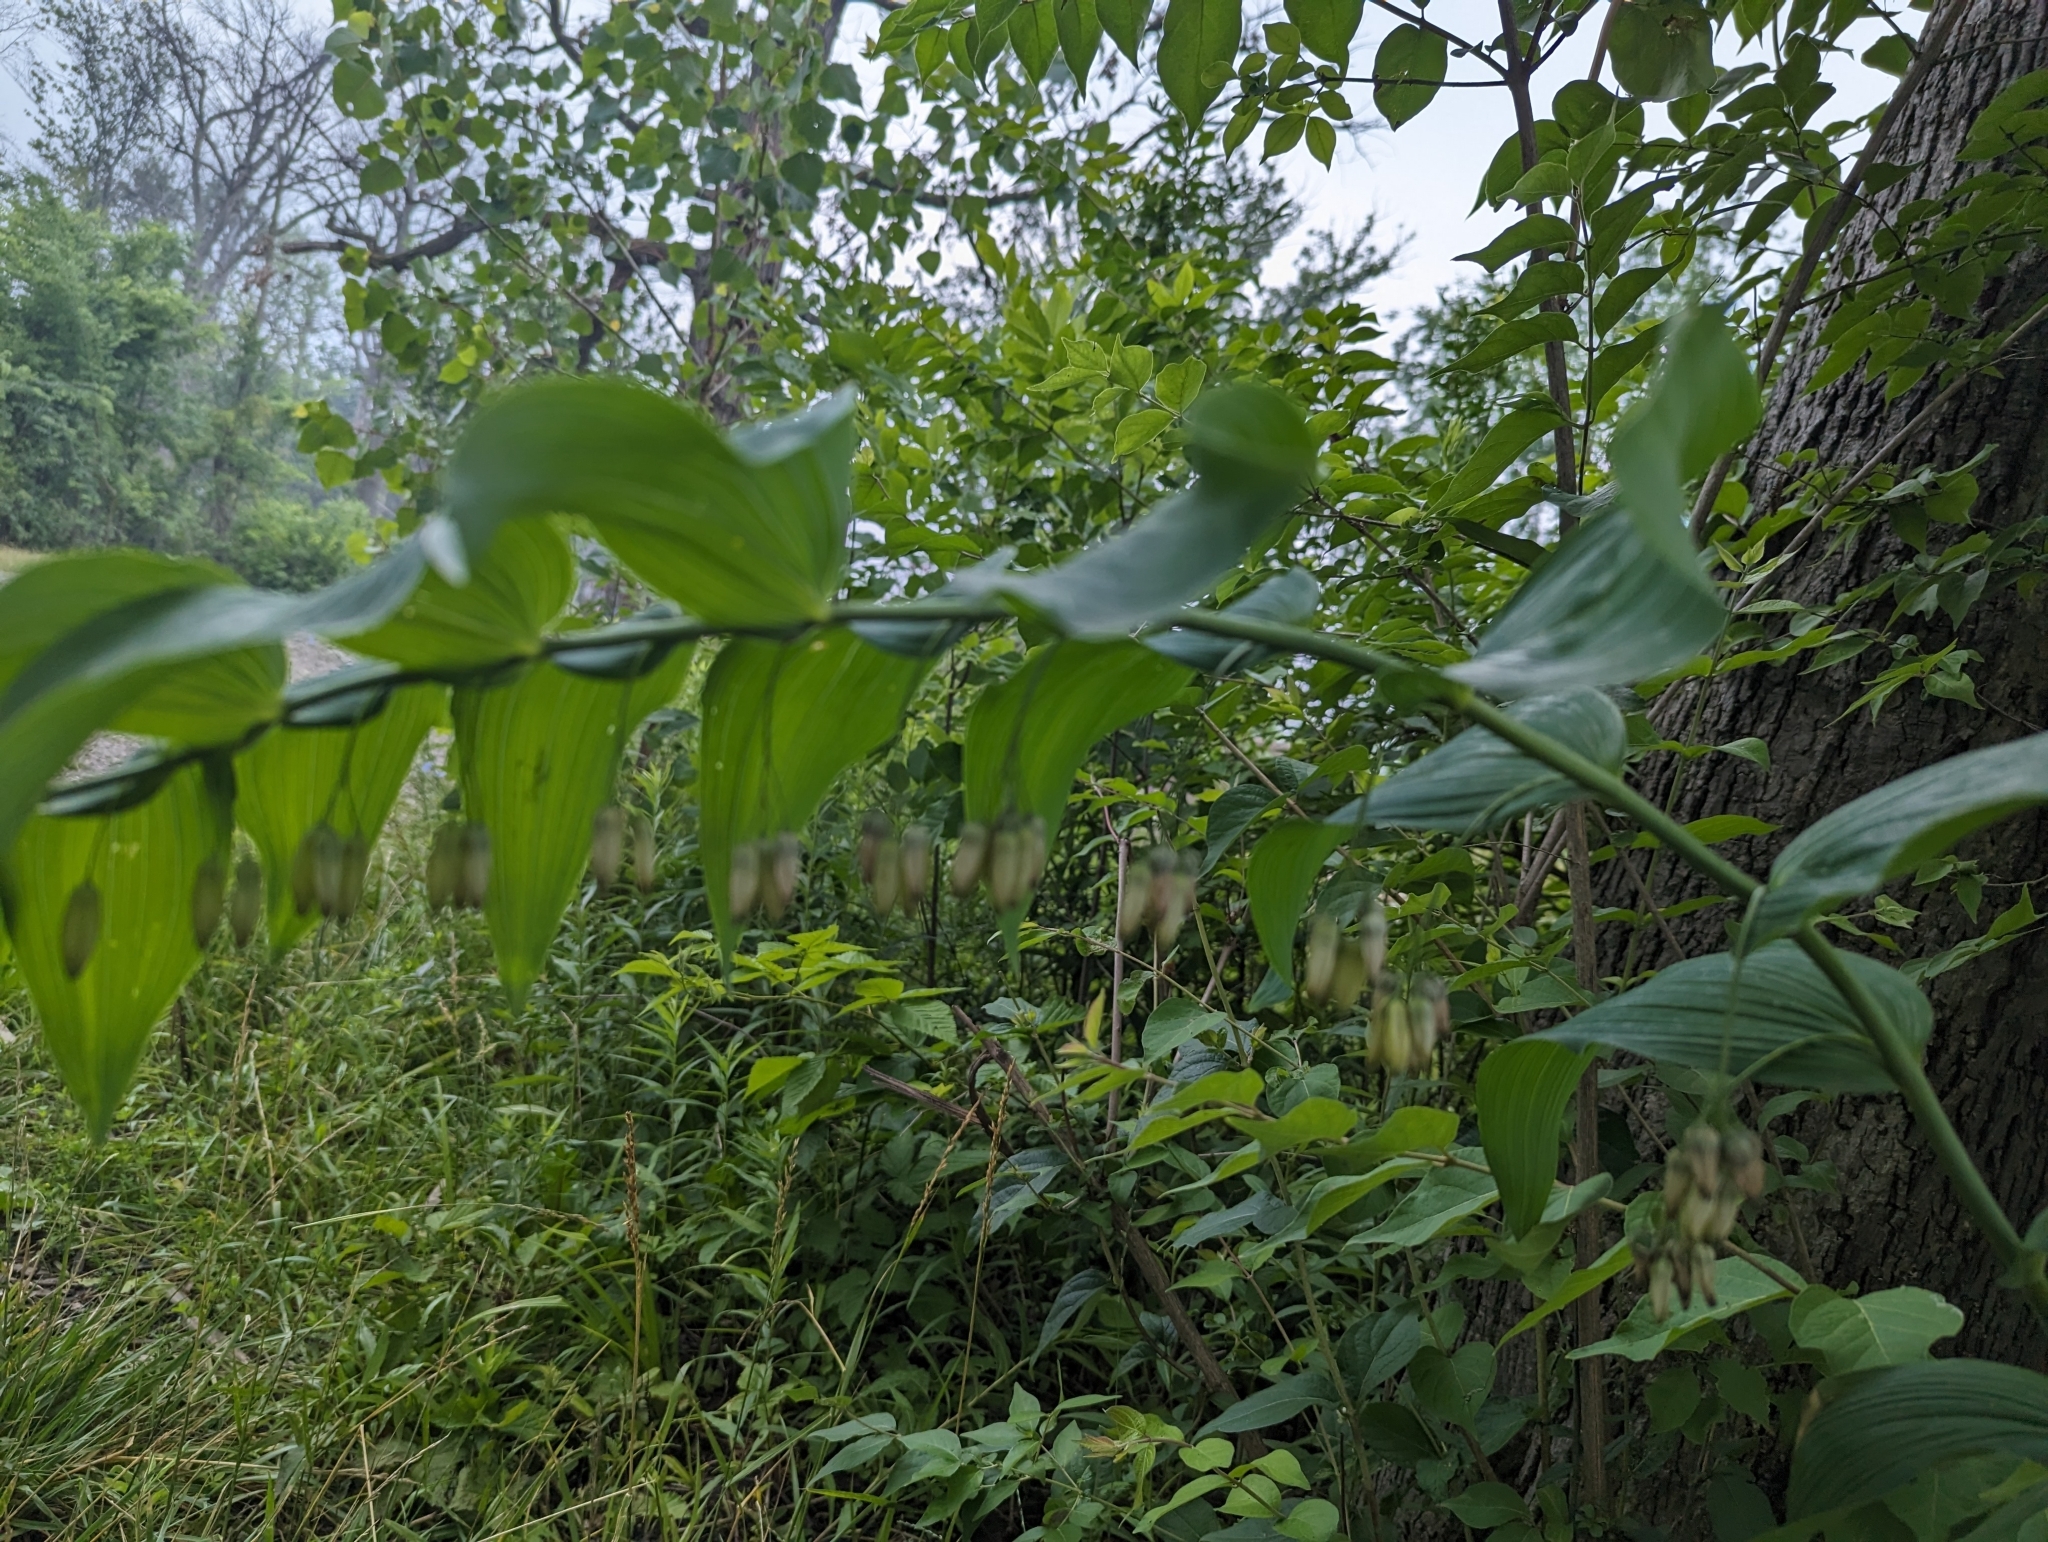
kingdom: Plantae
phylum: Tracheophyta
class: Liliopsida
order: Asparagales
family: Asparagaceae
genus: Polygonatum
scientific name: Polygonatum biflorum
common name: American solomon's-seal
